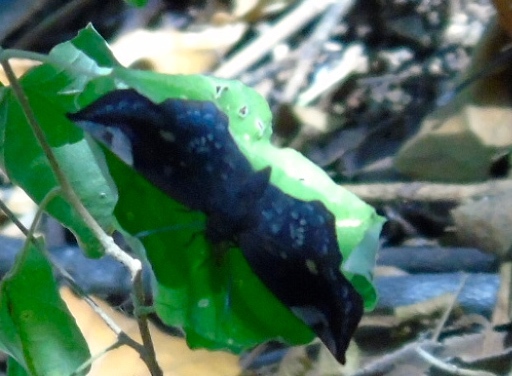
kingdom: Animalia
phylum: Arthropoda
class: Insecta
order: Lepidoptera
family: Hesperiidae
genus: Achlyodes
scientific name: Achlyodes thraso
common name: Sickle-winged skipper
